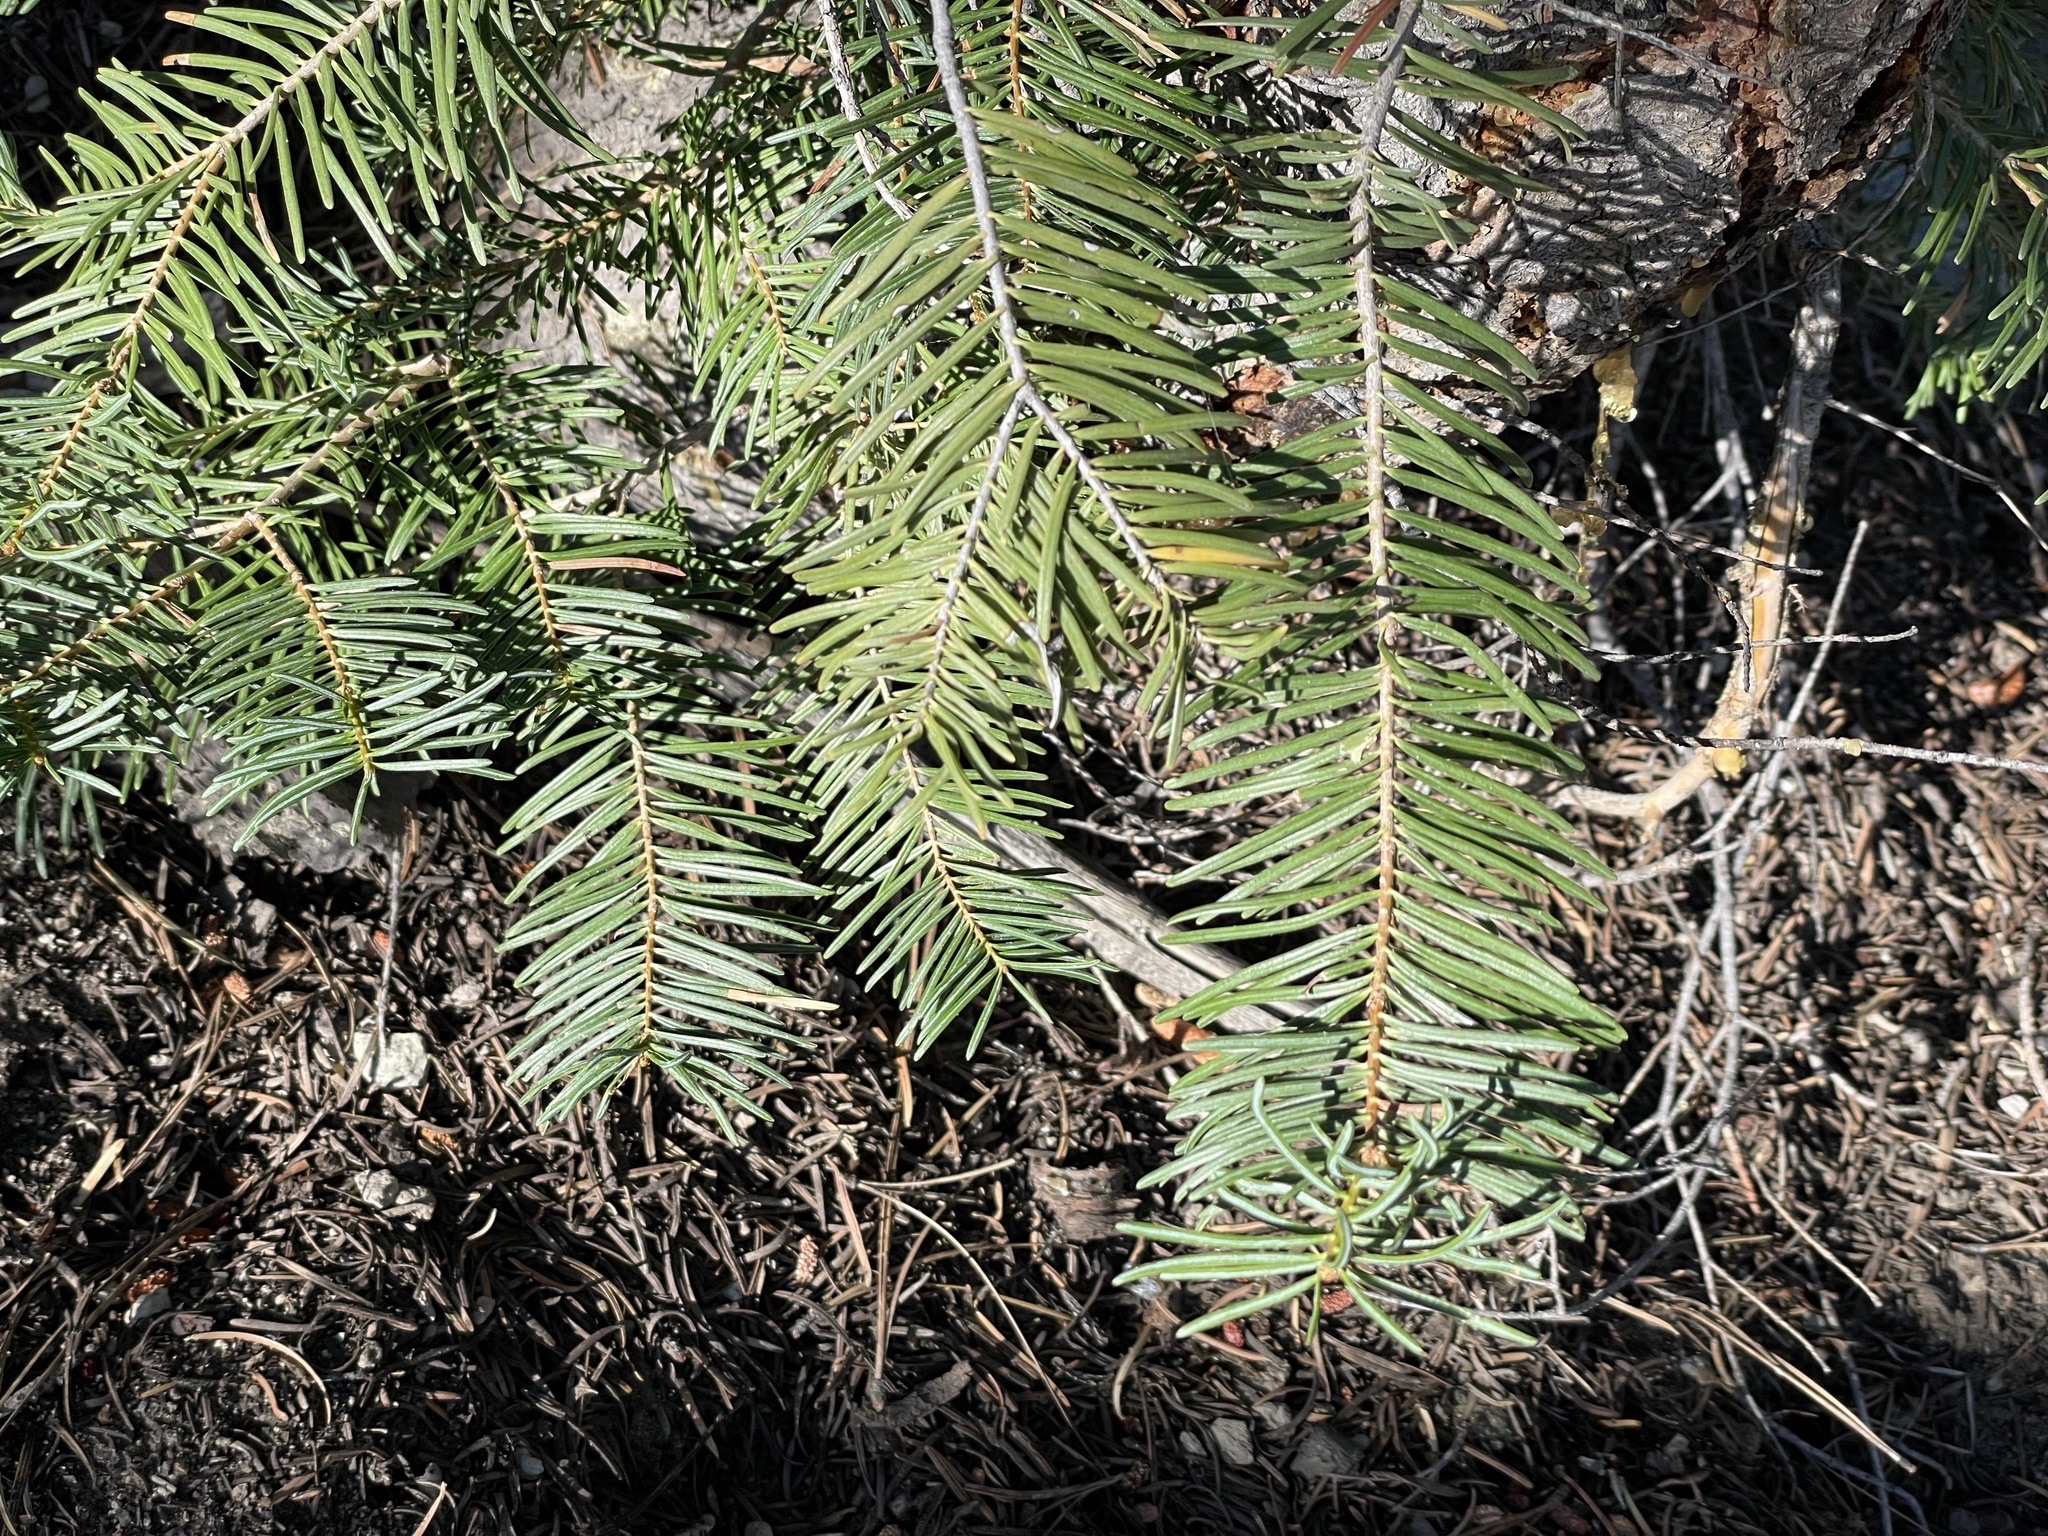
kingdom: Plantae
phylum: Tracheophyta
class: Pinopsida
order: Pinales
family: Pinaceae
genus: Abies
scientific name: Abies concolor
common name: Colorado fir
